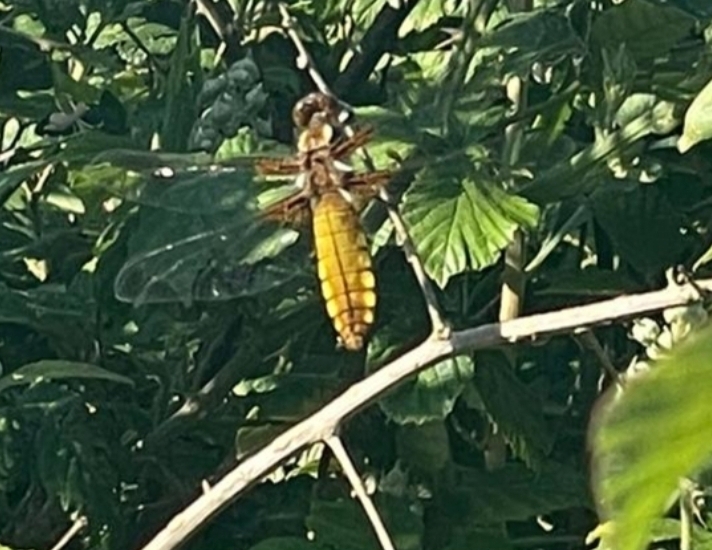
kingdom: Animalia
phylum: Arthropoda
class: Insecta
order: Odonata
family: Libellulidae
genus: Libellula
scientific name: Libellula depressa
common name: Broad-bodied chaser
